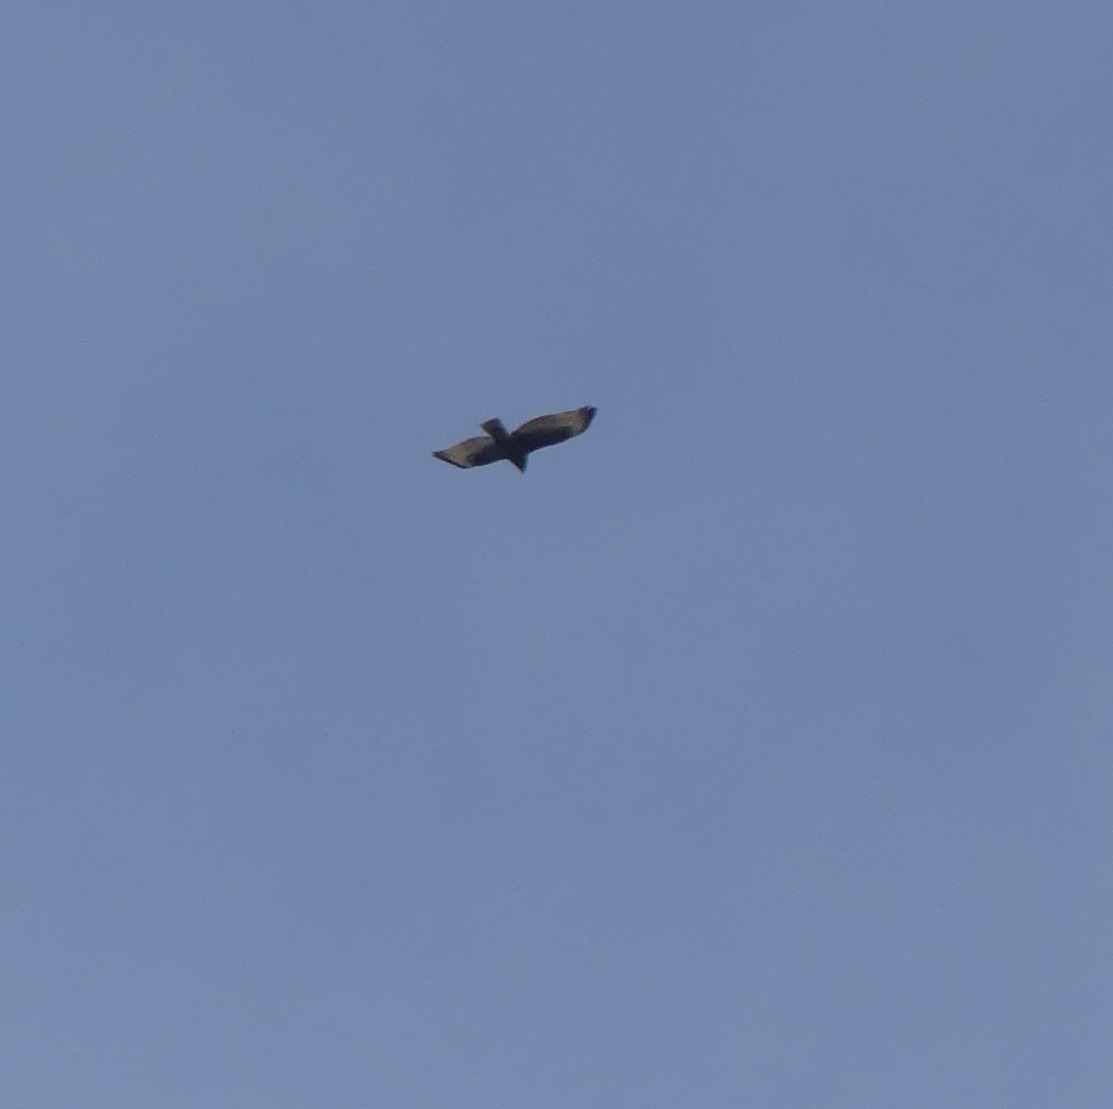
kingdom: Animalia
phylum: Chordata
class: Aves
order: Accipitriformes
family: Accipitridae
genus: Buteo
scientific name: Buteo jamaicensis
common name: Red-tailed hawk
